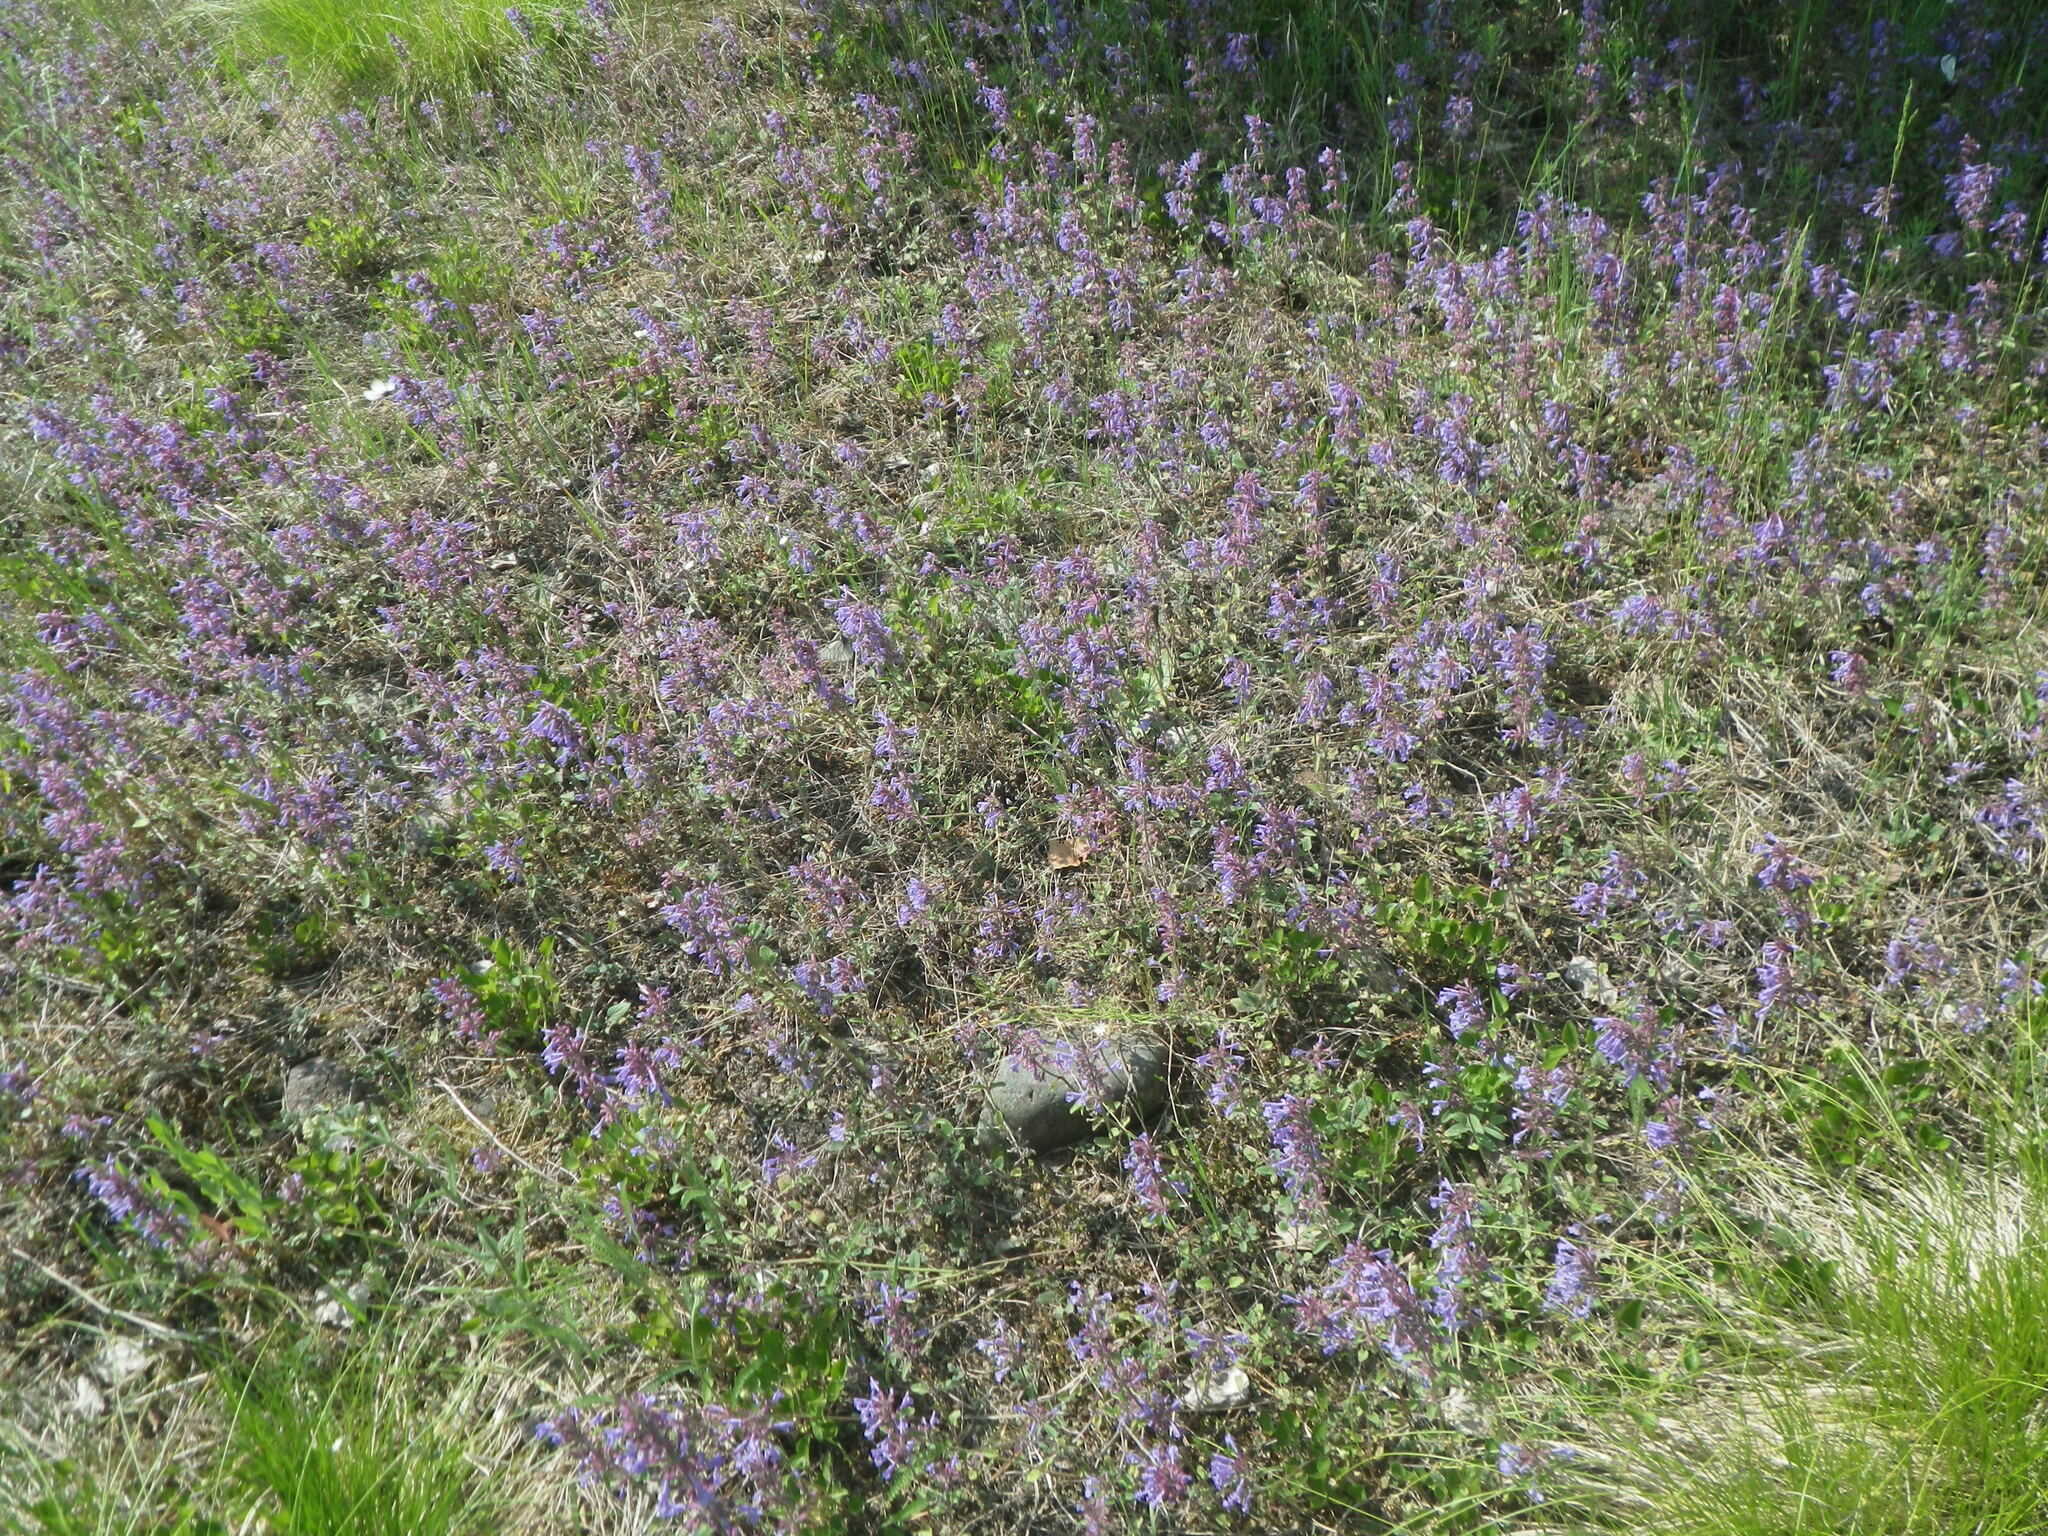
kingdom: Plantae
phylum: Tracheophyta
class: Magnoliopsida
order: Lamiales
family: Lamiaceae
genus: Dracocephalum
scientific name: Dracocephalum nutans
